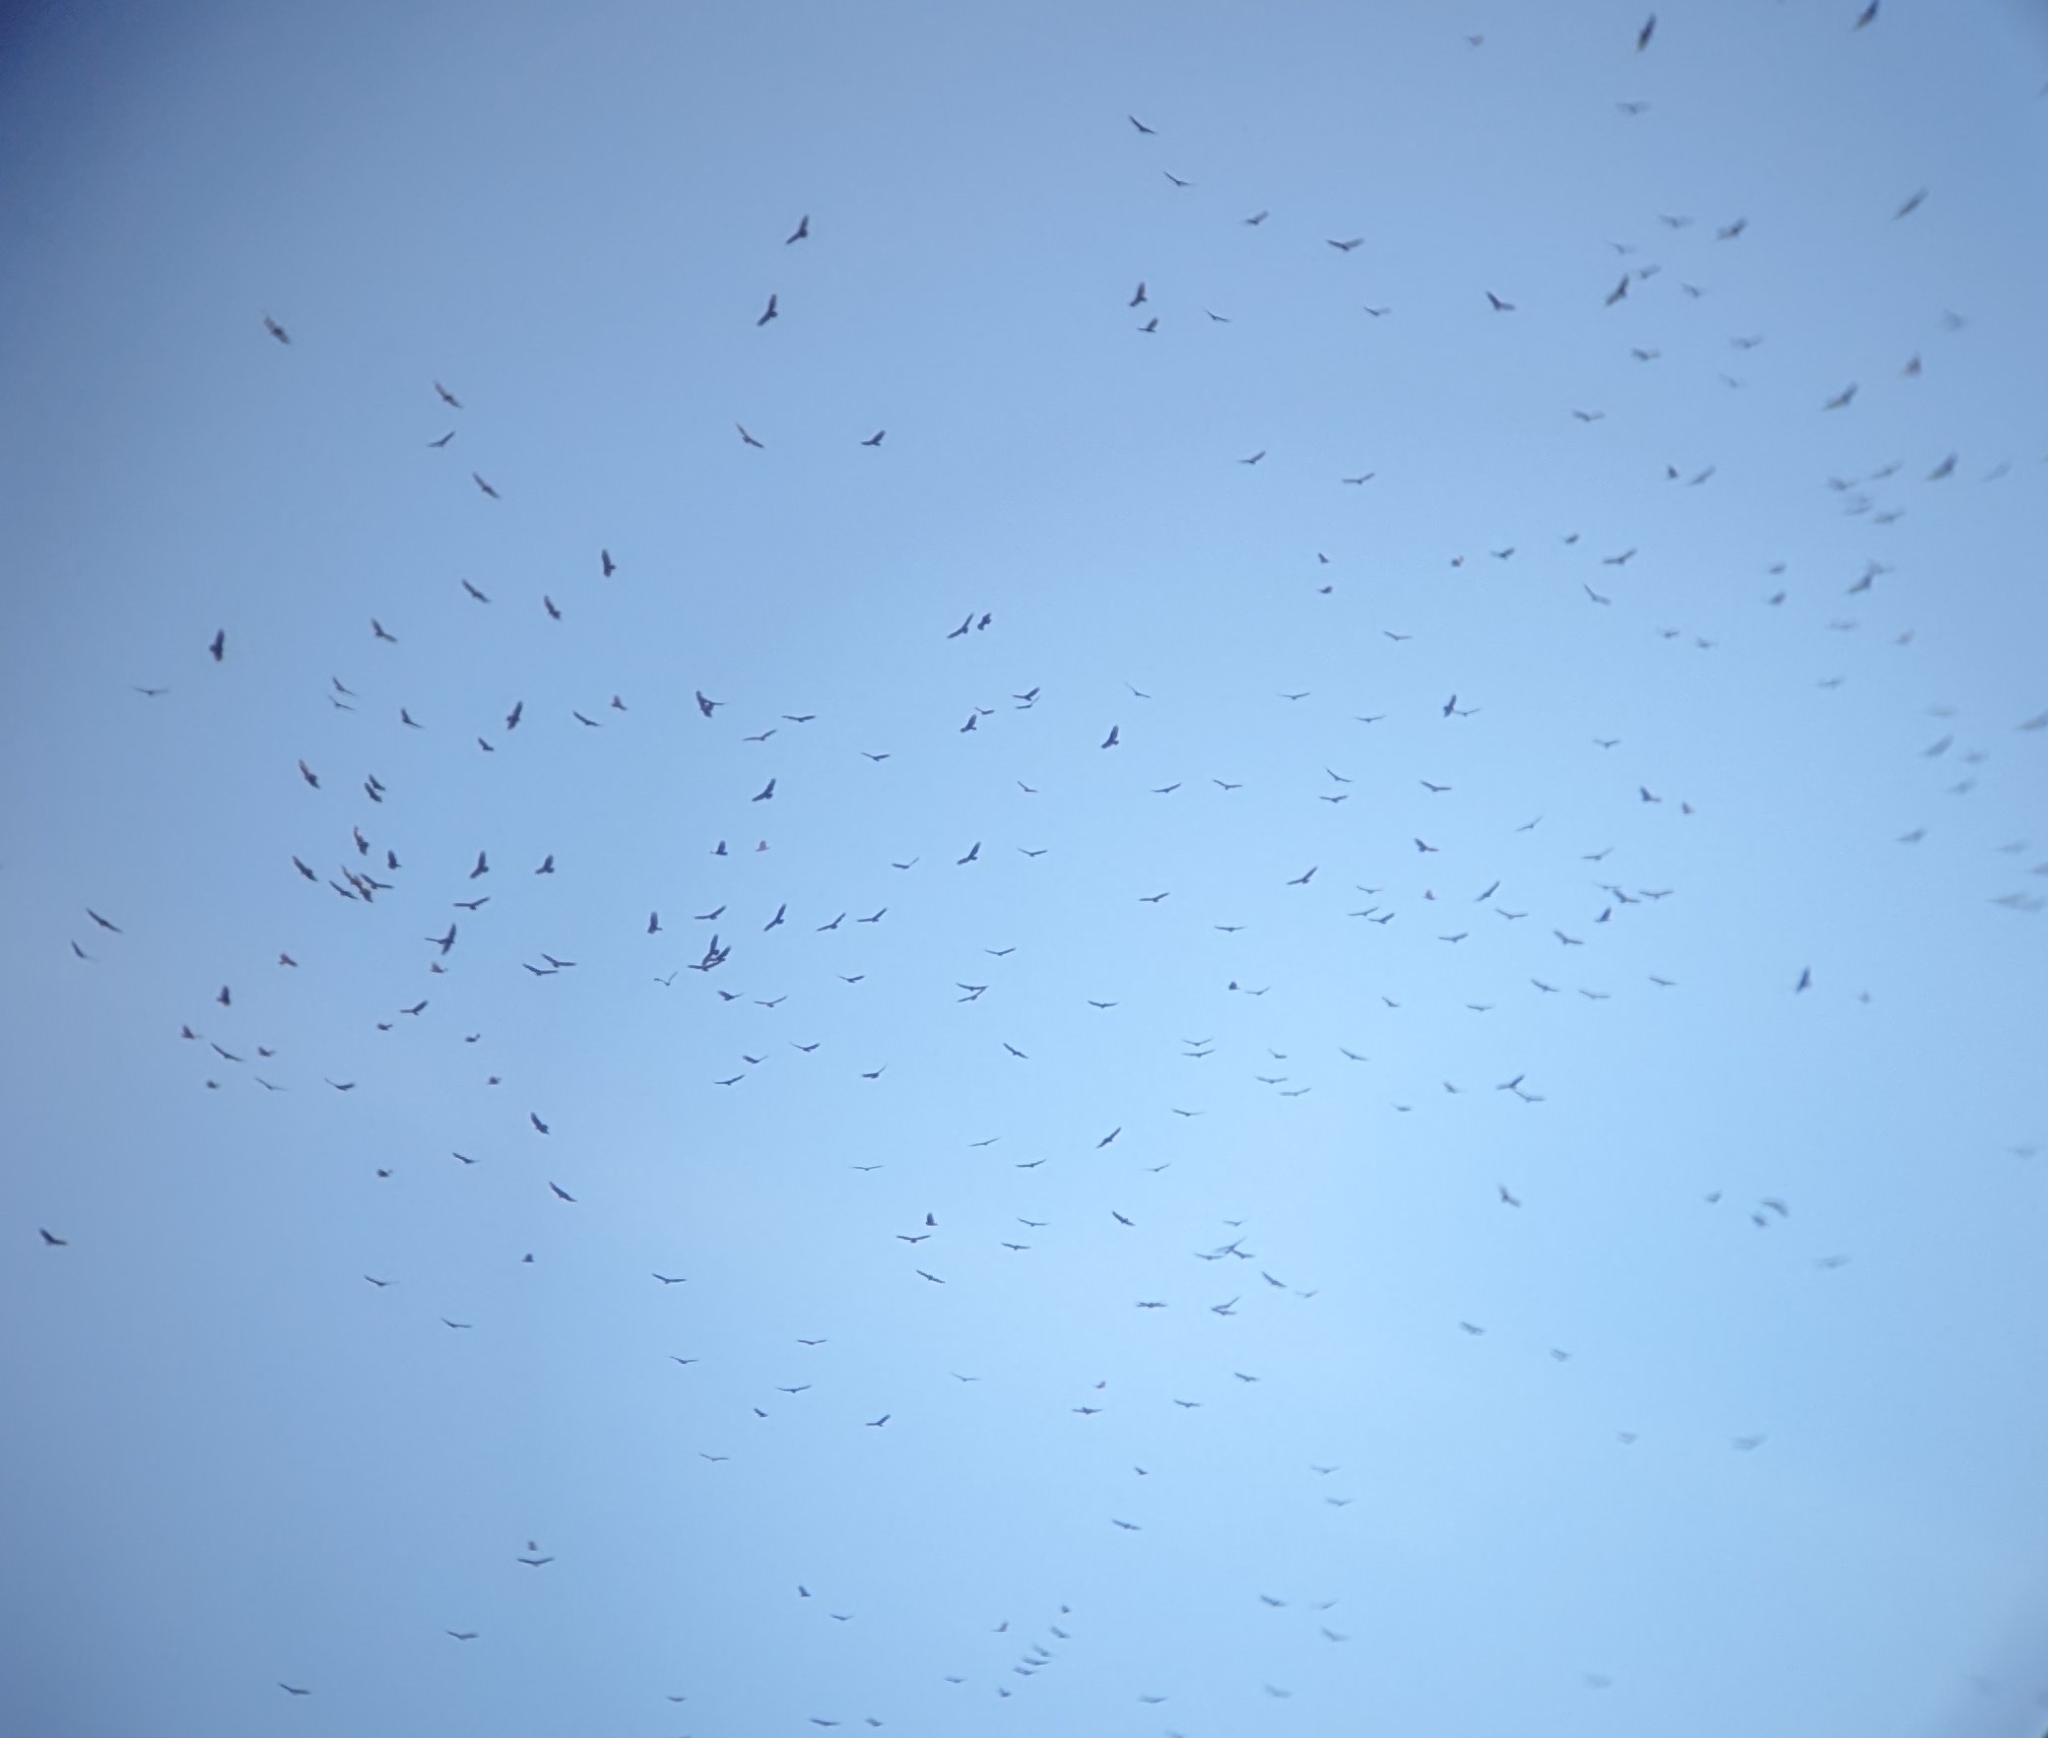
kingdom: Animalia
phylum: Chordata
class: Aves
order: Accipitriformes
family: Cathartidae
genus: Cathartes
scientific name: Cathartes aura
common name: Turkey vulture
